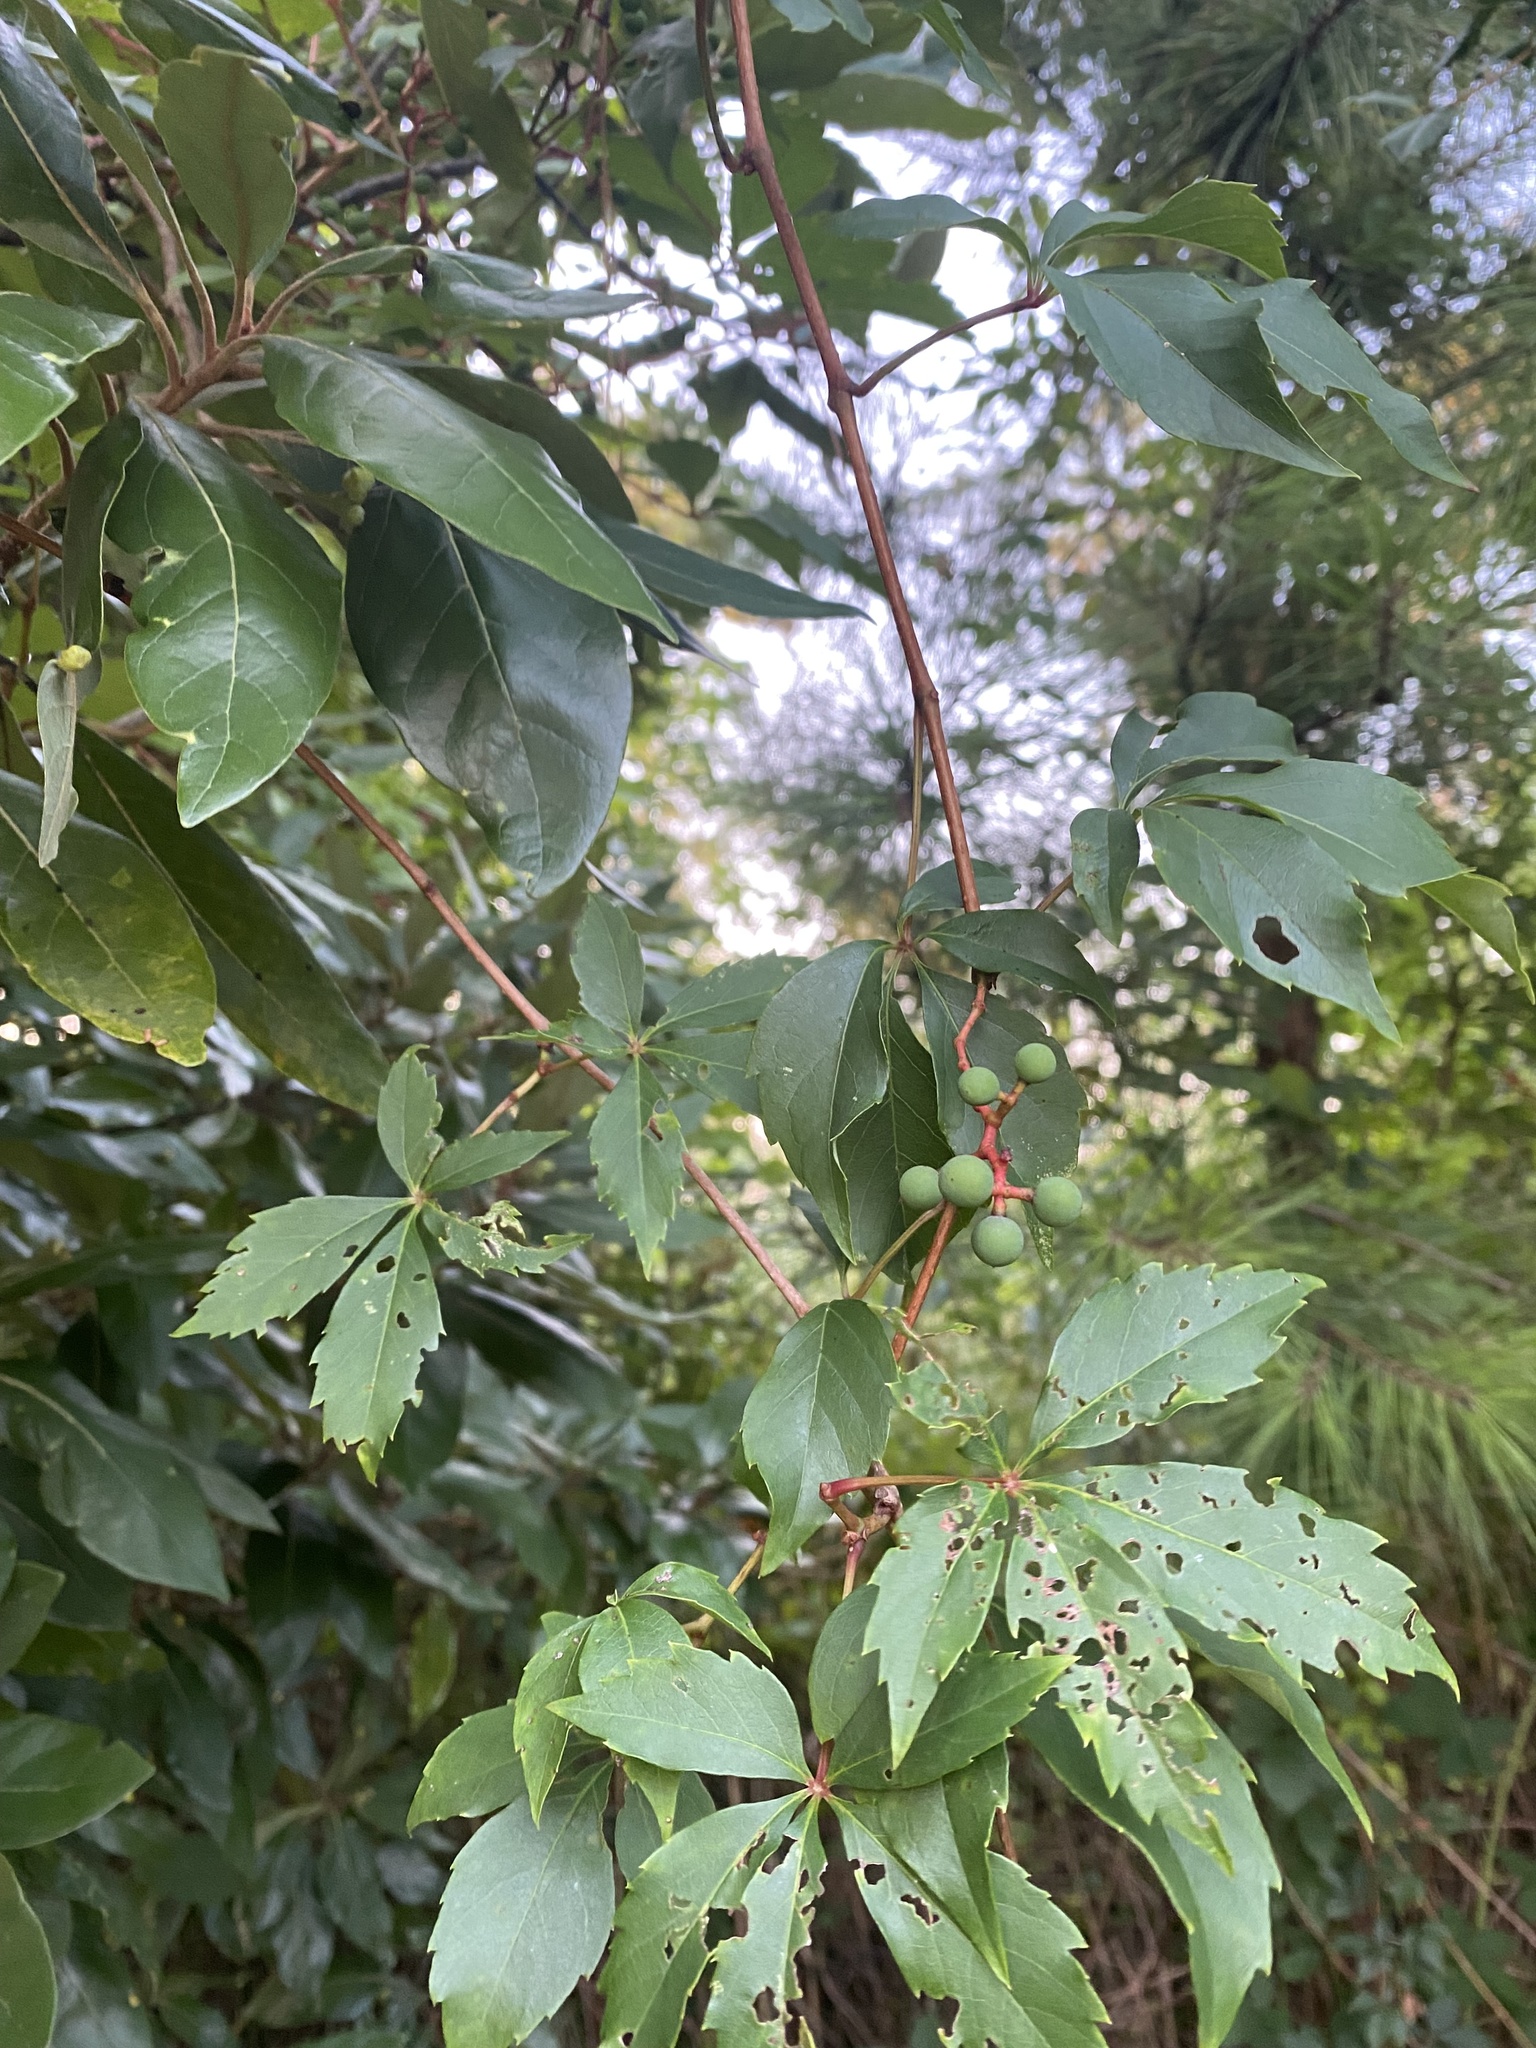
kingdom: Plantae
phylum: Tracheophyta
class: Magnoliopsida
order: Vitales
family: Vitaceae
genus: Parthenocissus
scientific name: Parthenocissus quinquefolia
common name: Virginia-creeper
